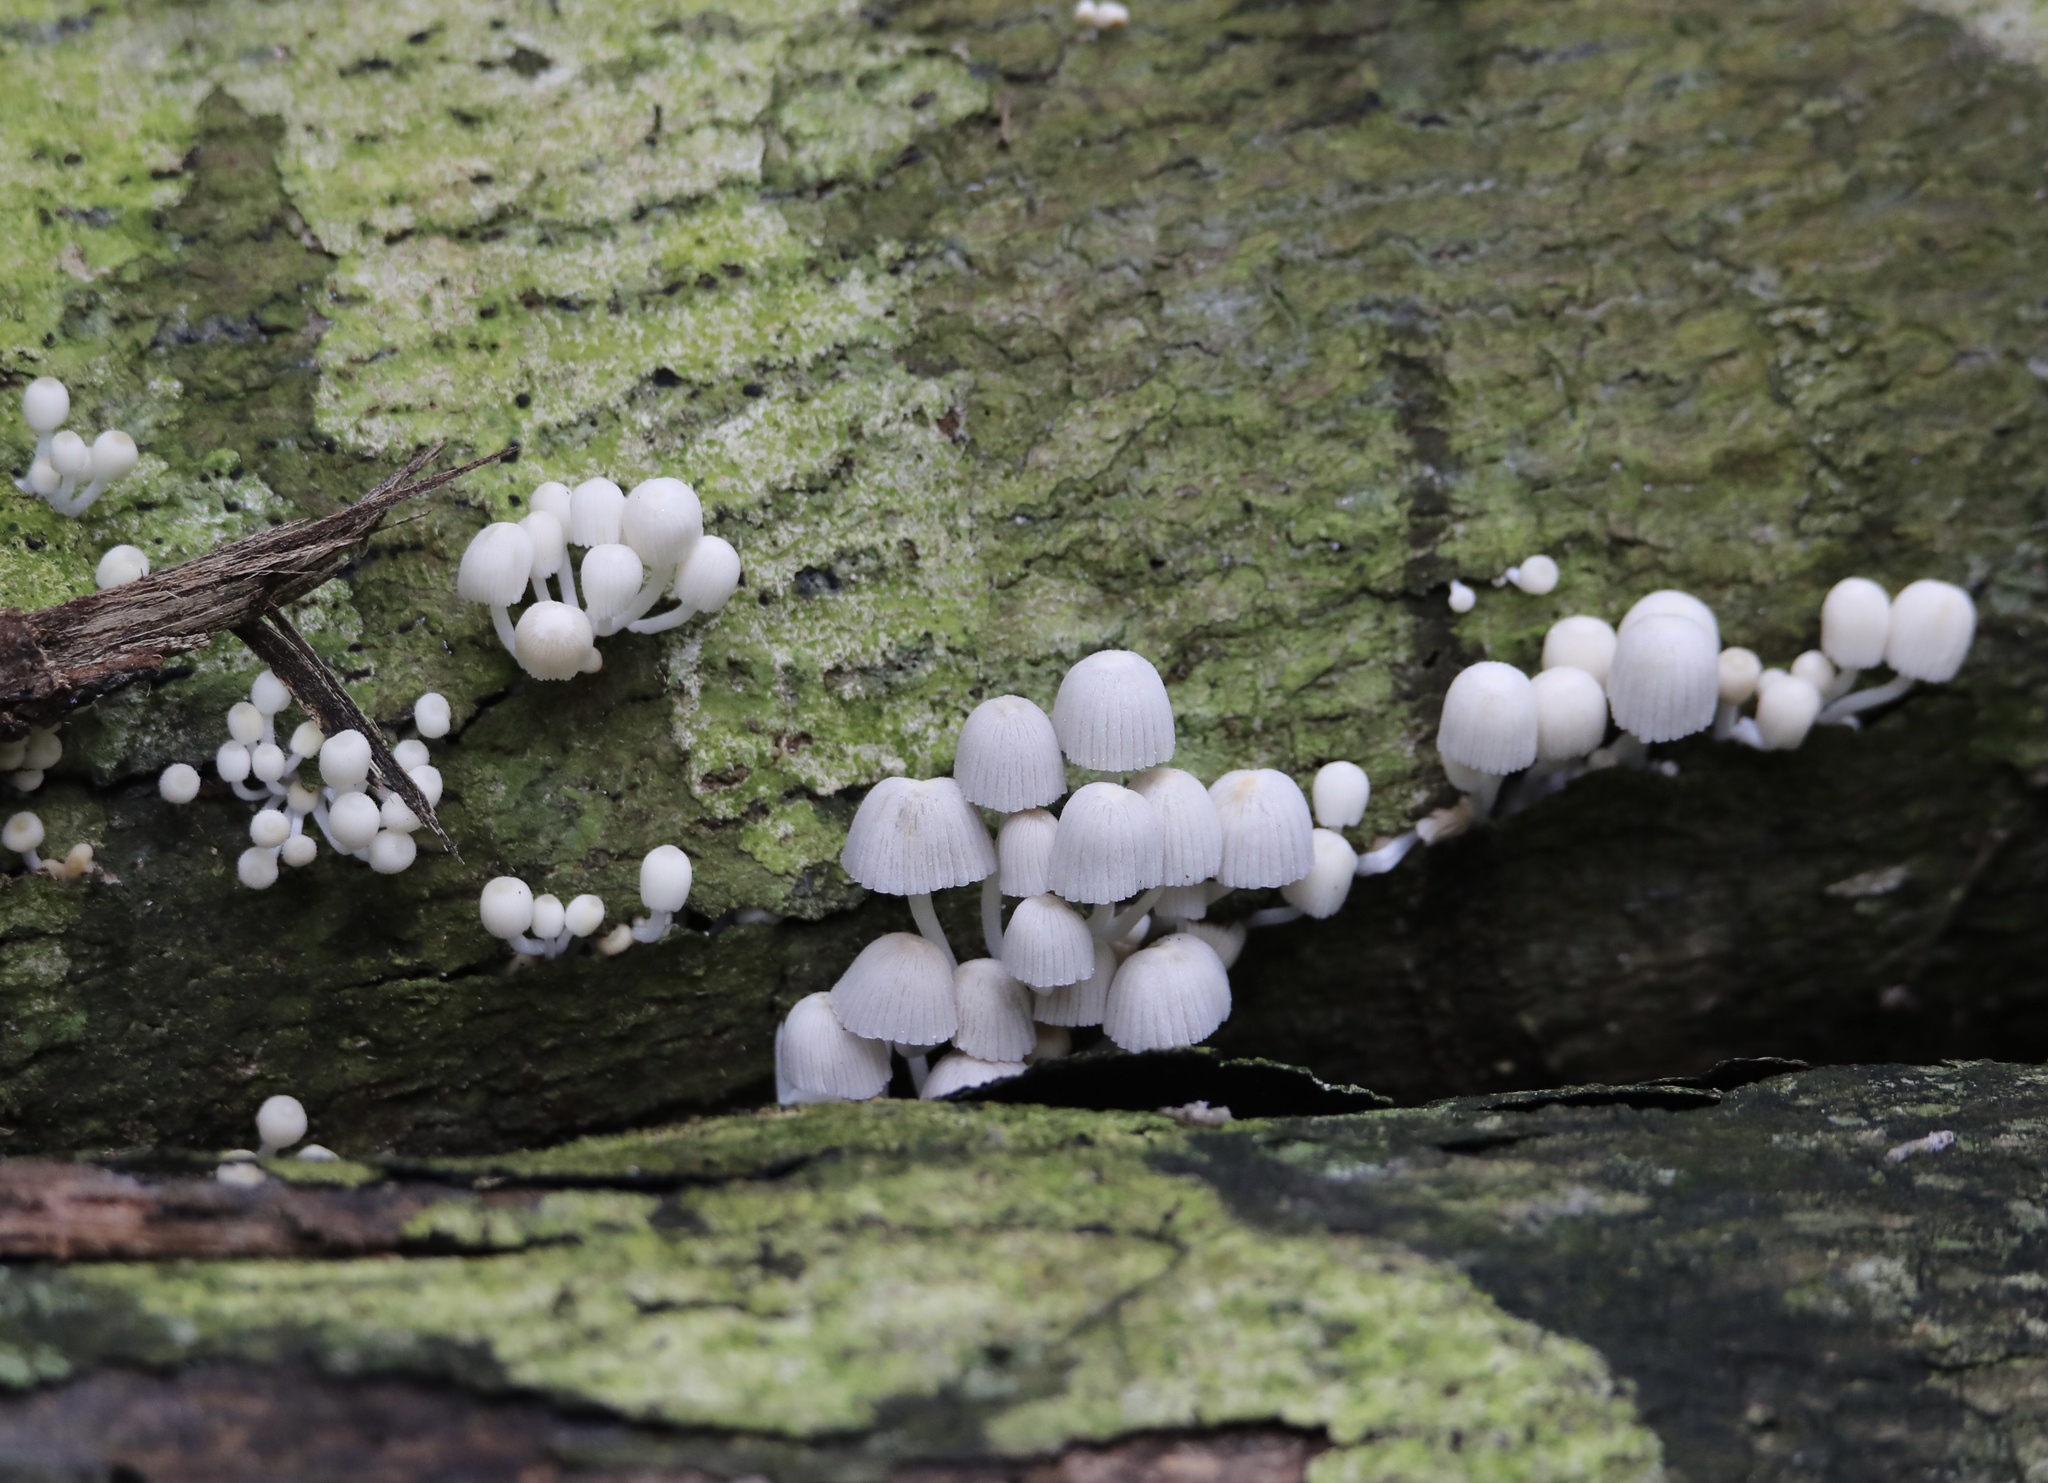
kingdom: Fungi
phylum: Basidiomycota
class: Agaricomycetes
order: Agaricales
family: Psathyrellaceae
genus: Coprinellus
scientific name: Coprinellus disseminatus
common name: Fairies' bonnets
